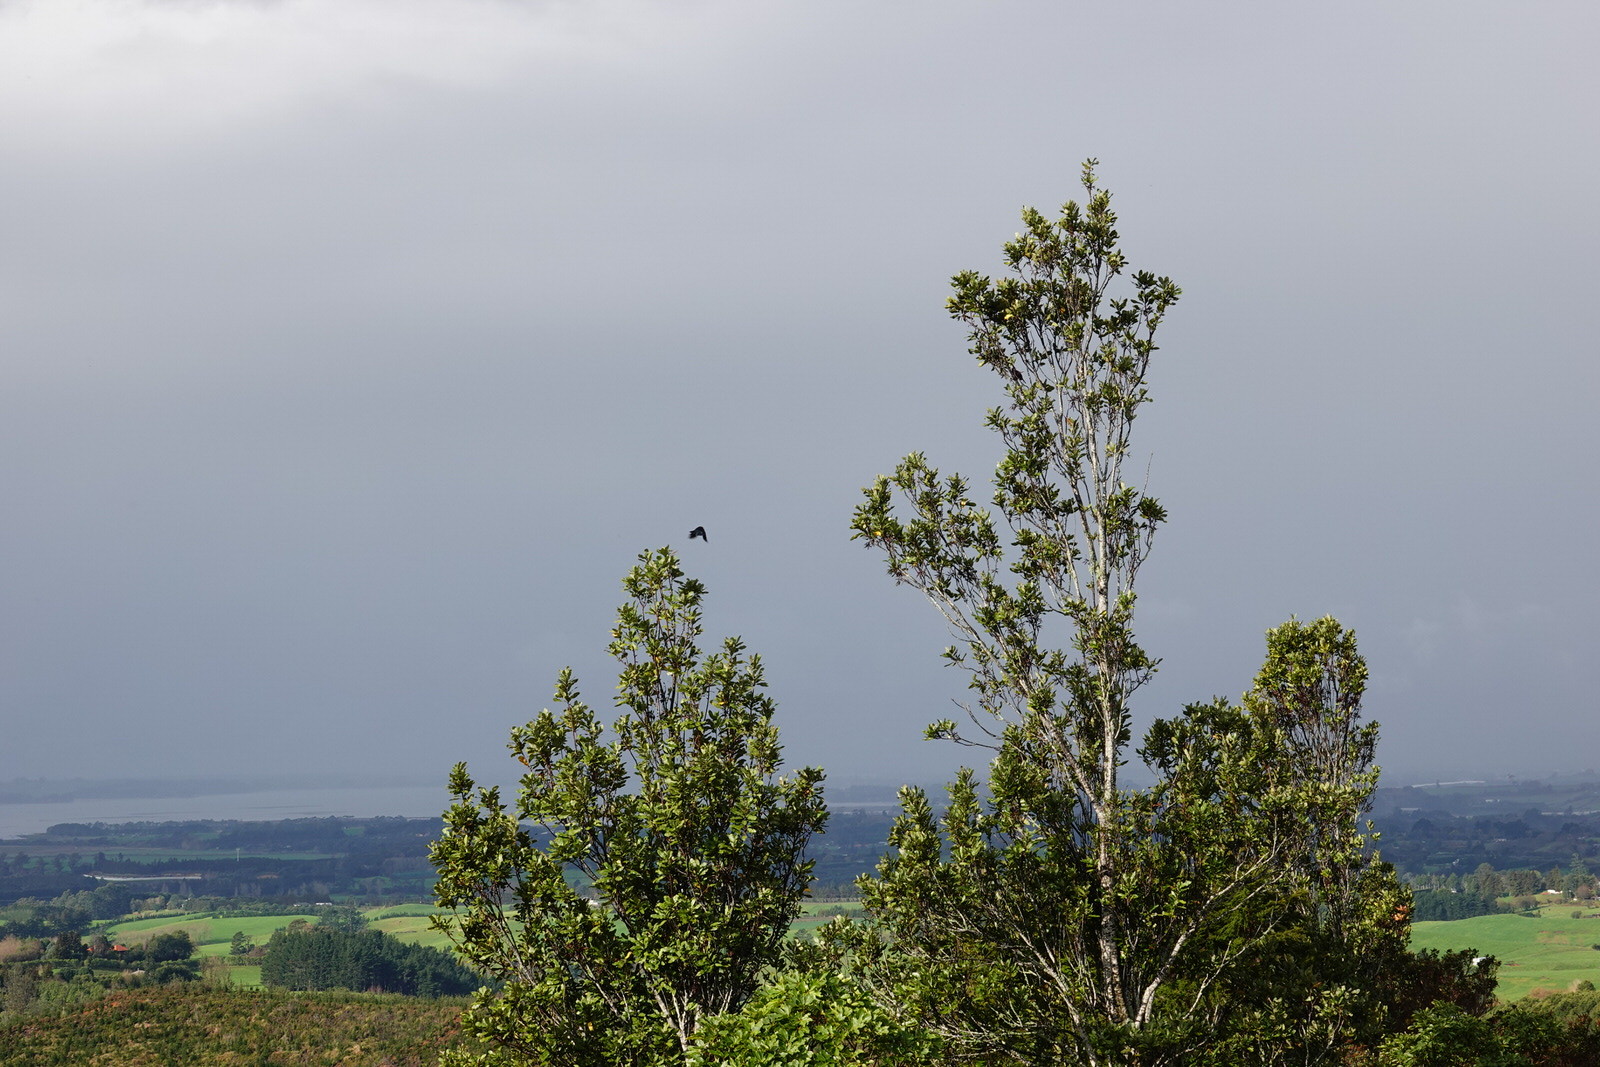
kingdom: Animalia
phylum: Chordata
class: Aves
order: Passeriformes
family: Meliphagidae
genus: Prosthemadera
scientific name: Prosthemadera novaeseelandiae
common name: Tui
